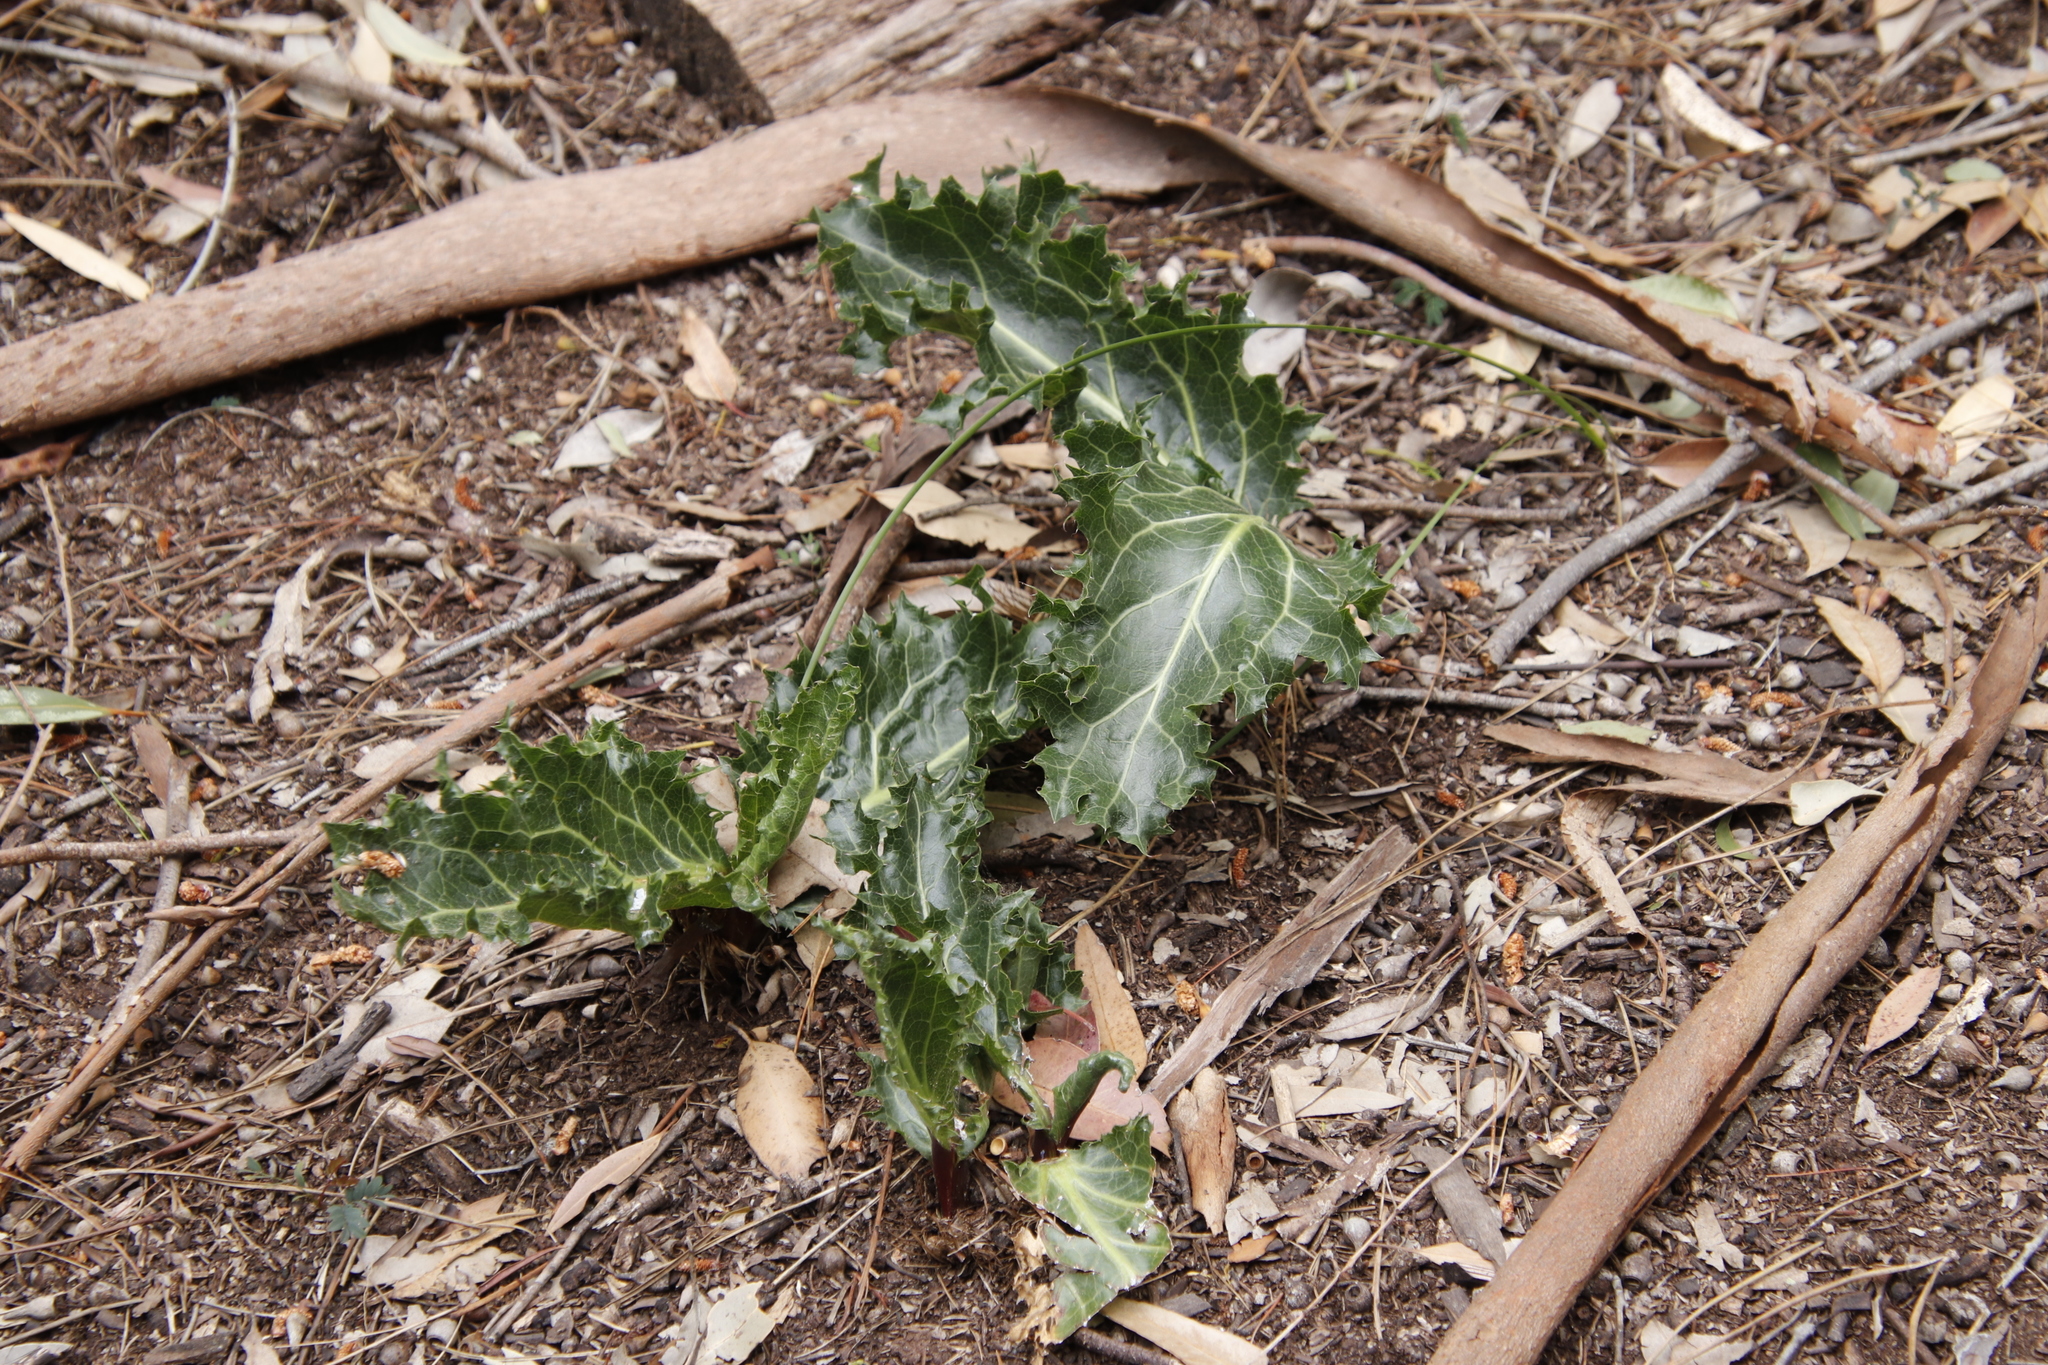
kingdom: Plantae
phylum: Tracheophyta
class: Magnoliopsida
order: Apiales
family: Apiaceae
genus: Lichtensteinia
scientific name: Lichtensteinia lacera
